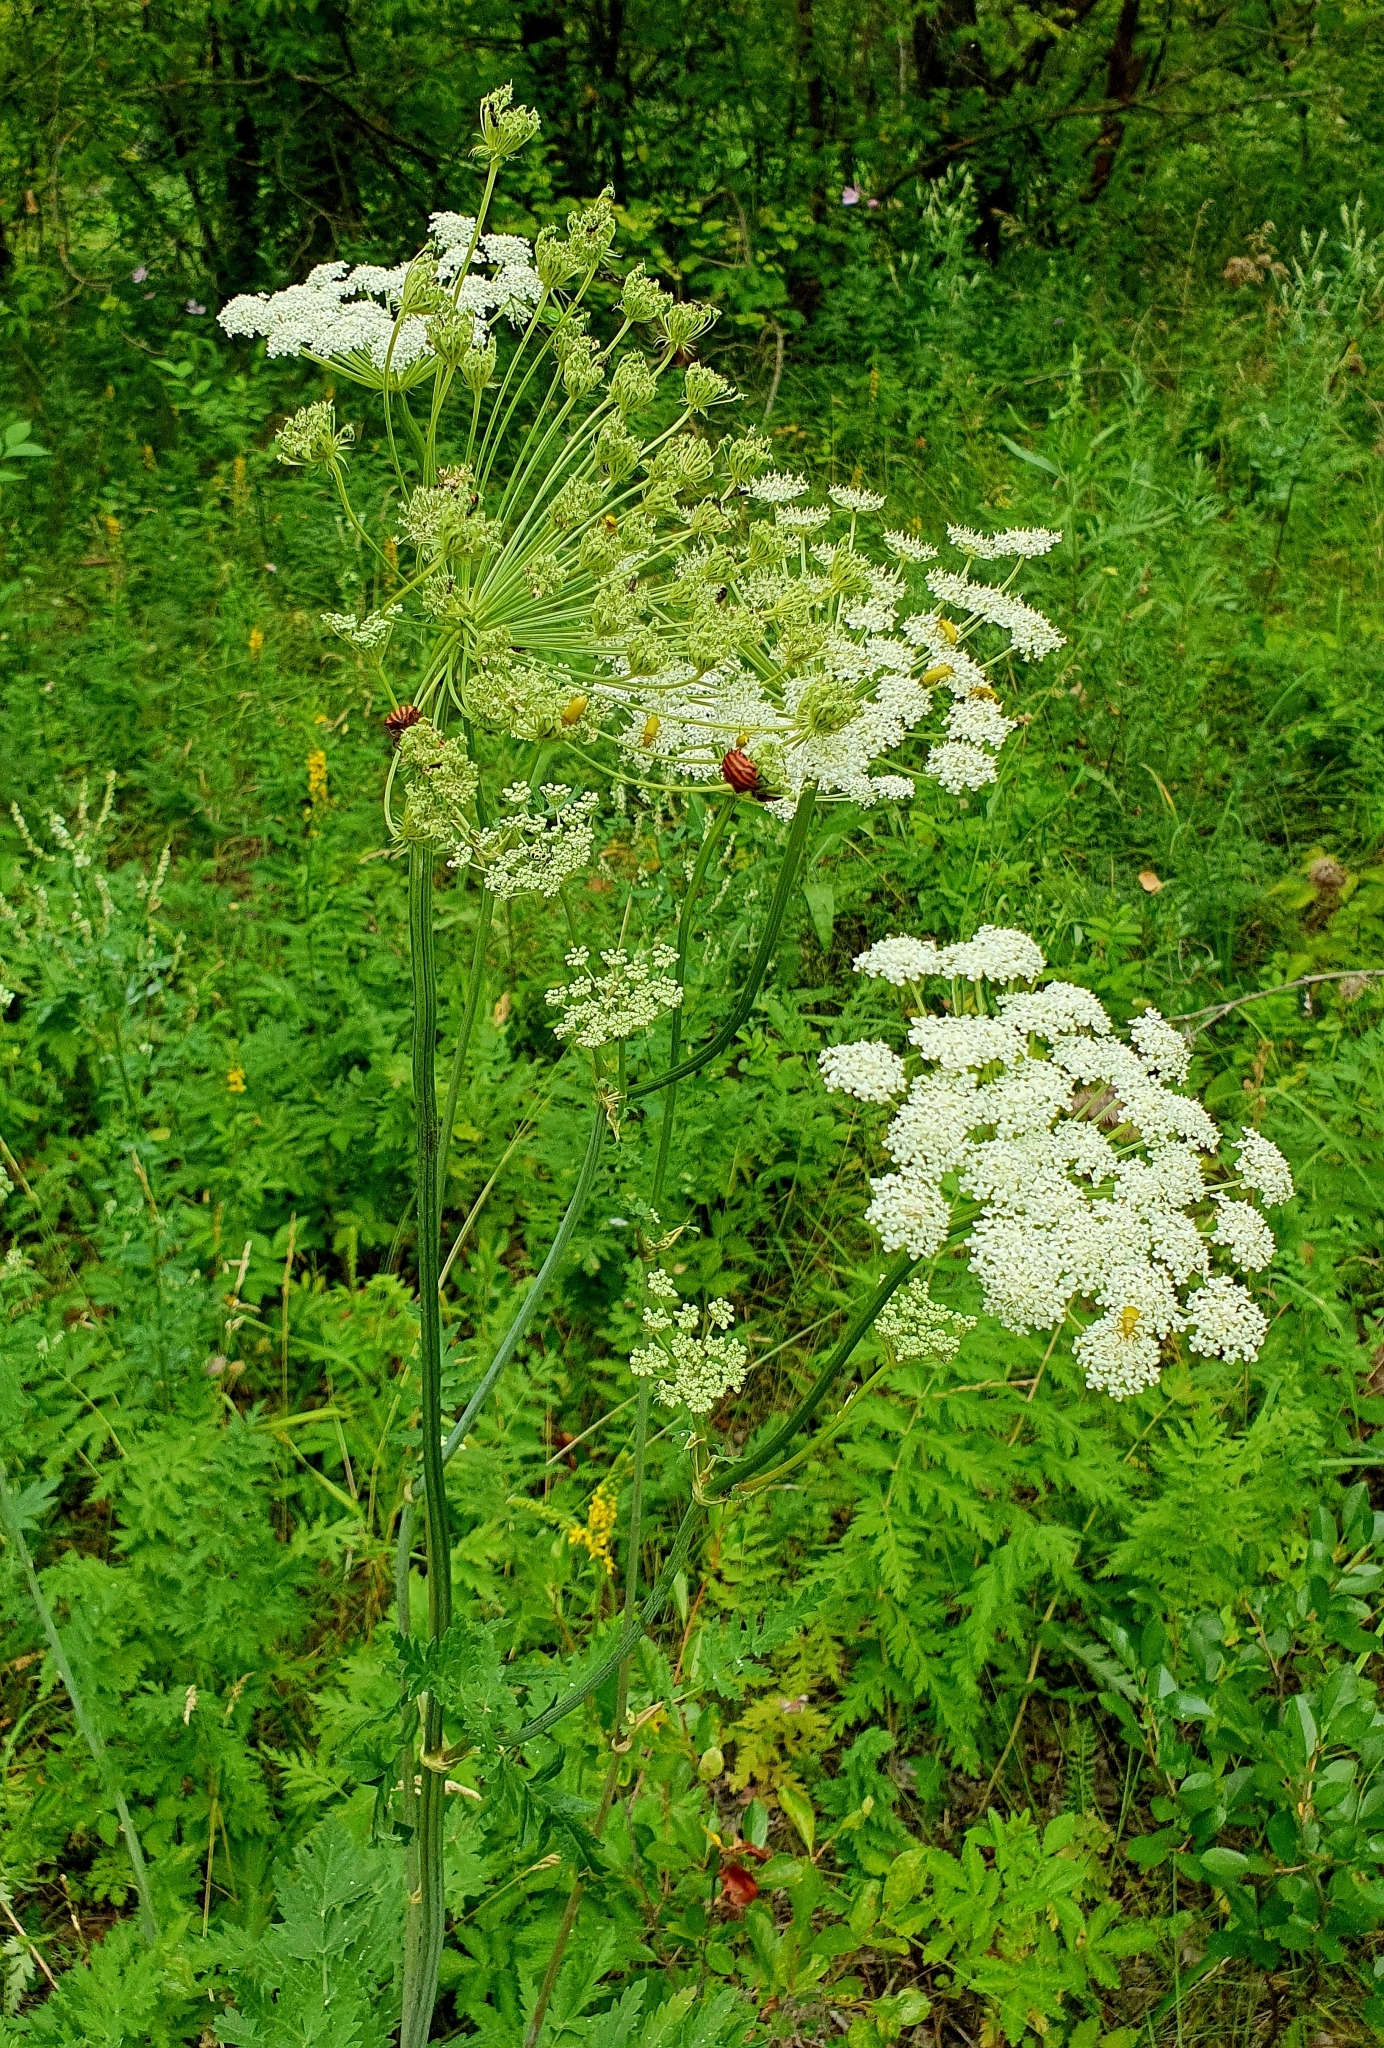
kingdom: Plantae
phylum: Tracheophyta
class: Magnoliopsida
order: Apiales
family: Apiaceae
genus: Seseli
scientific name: Seseli libanotis
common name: Mooncarrot
